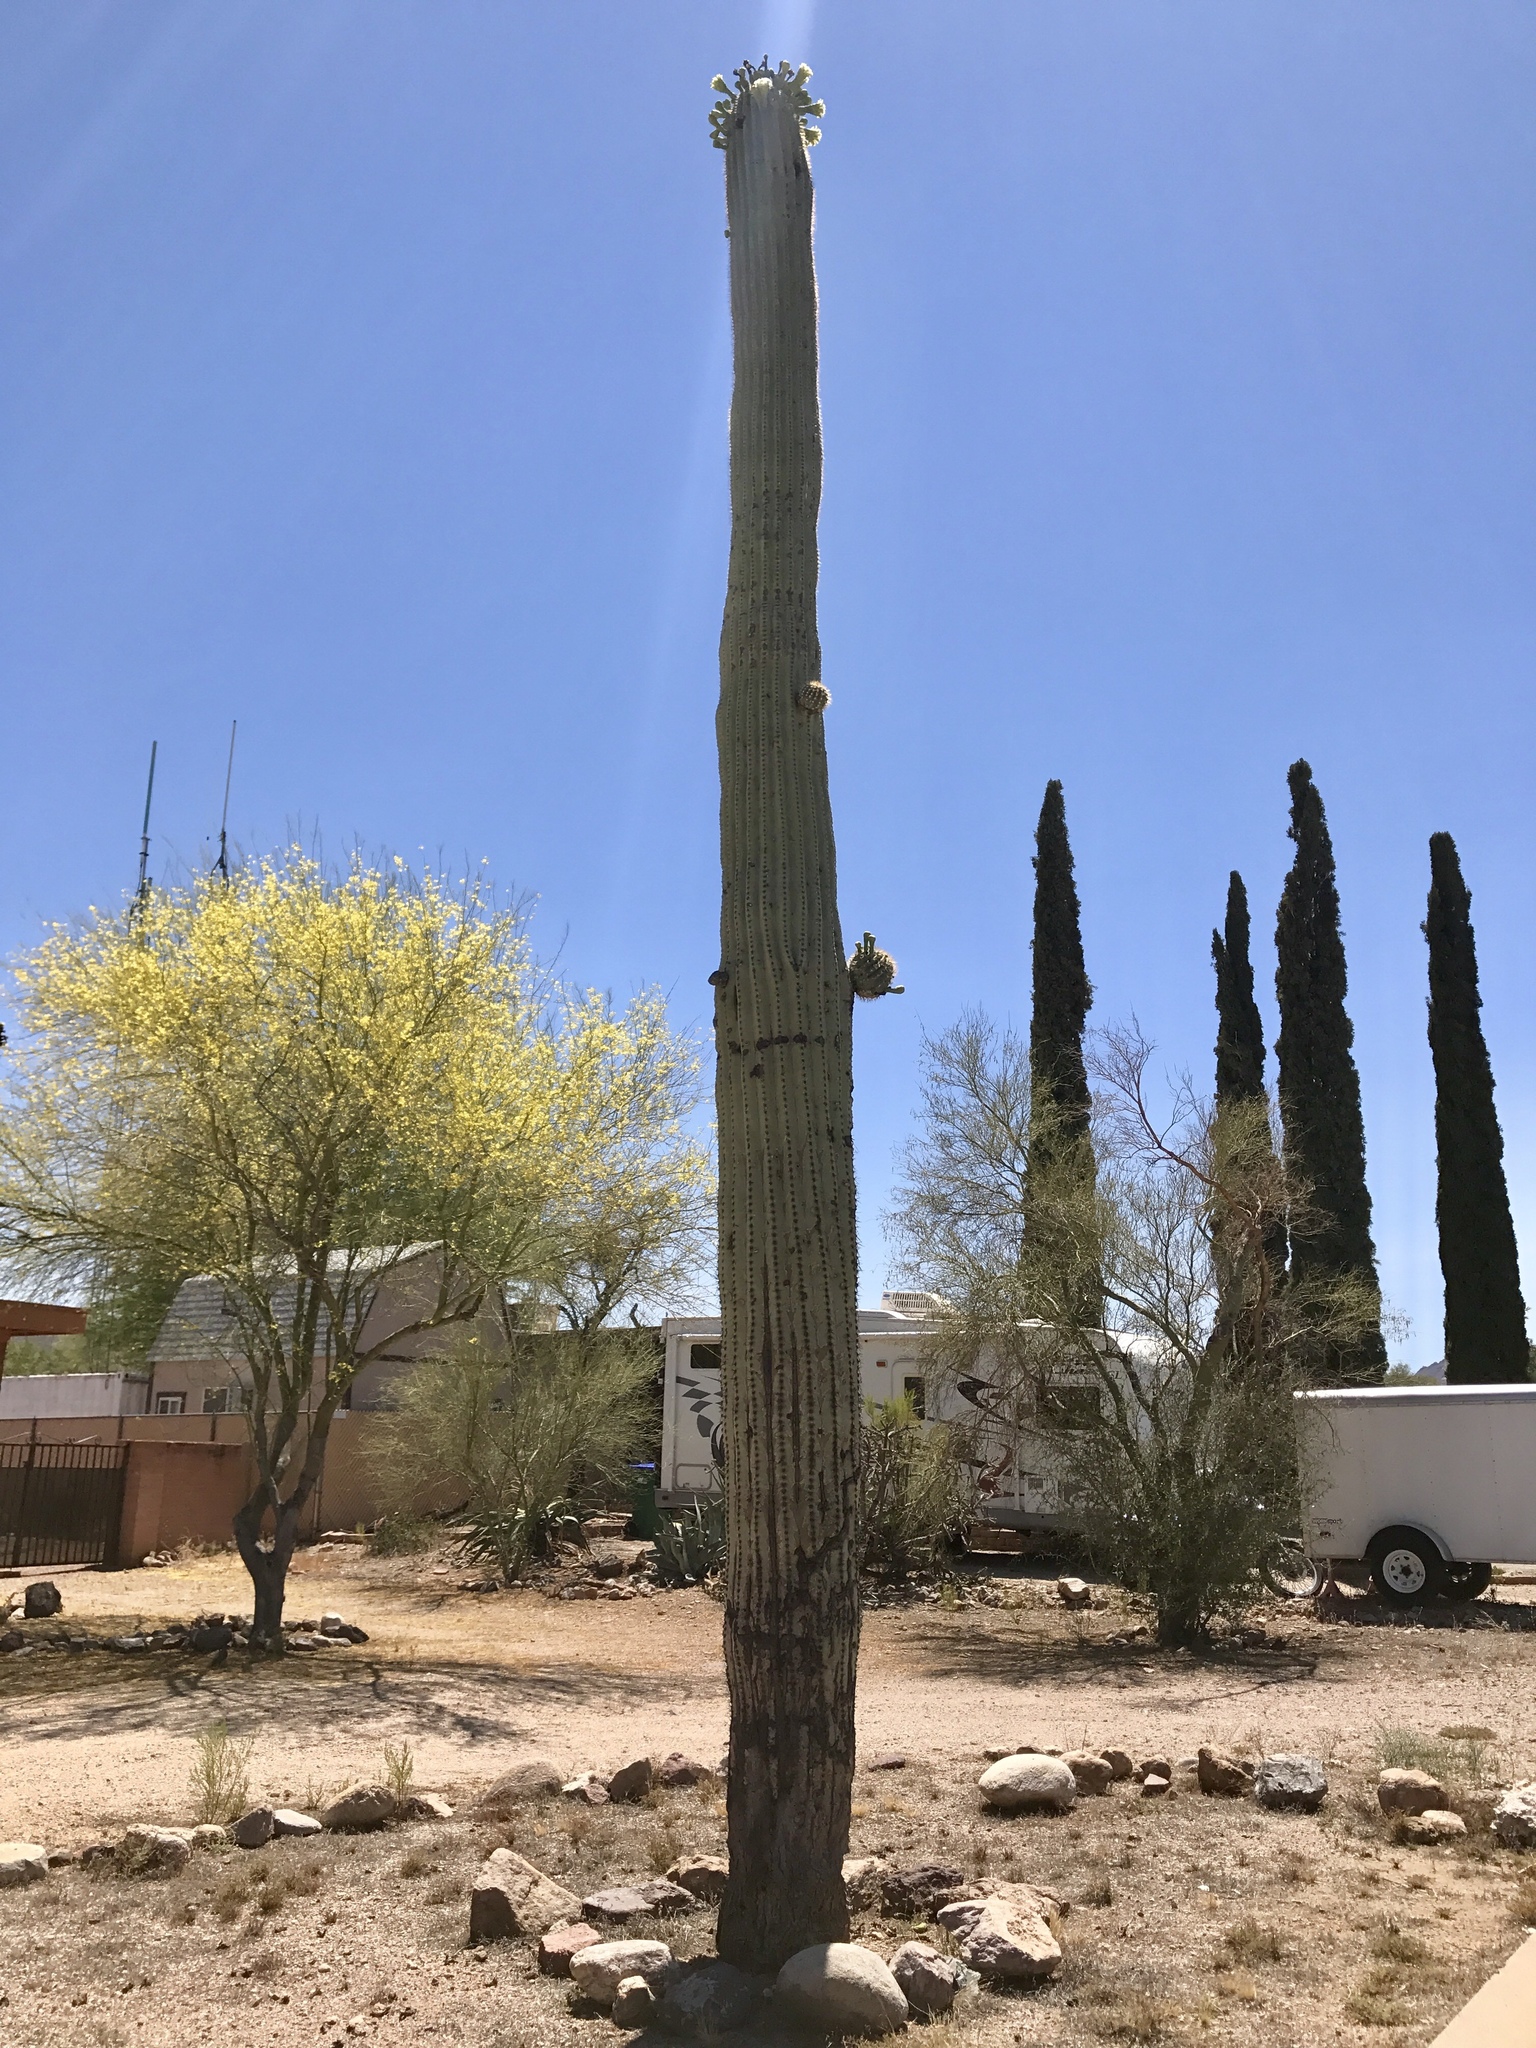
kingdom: Plantae
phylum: Tracheophyta
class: Magnoliopsida
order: Caryophyllales
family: Cactaceae
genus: Carnegiea
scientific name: Carnegiea gigantea
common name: Saguaro
